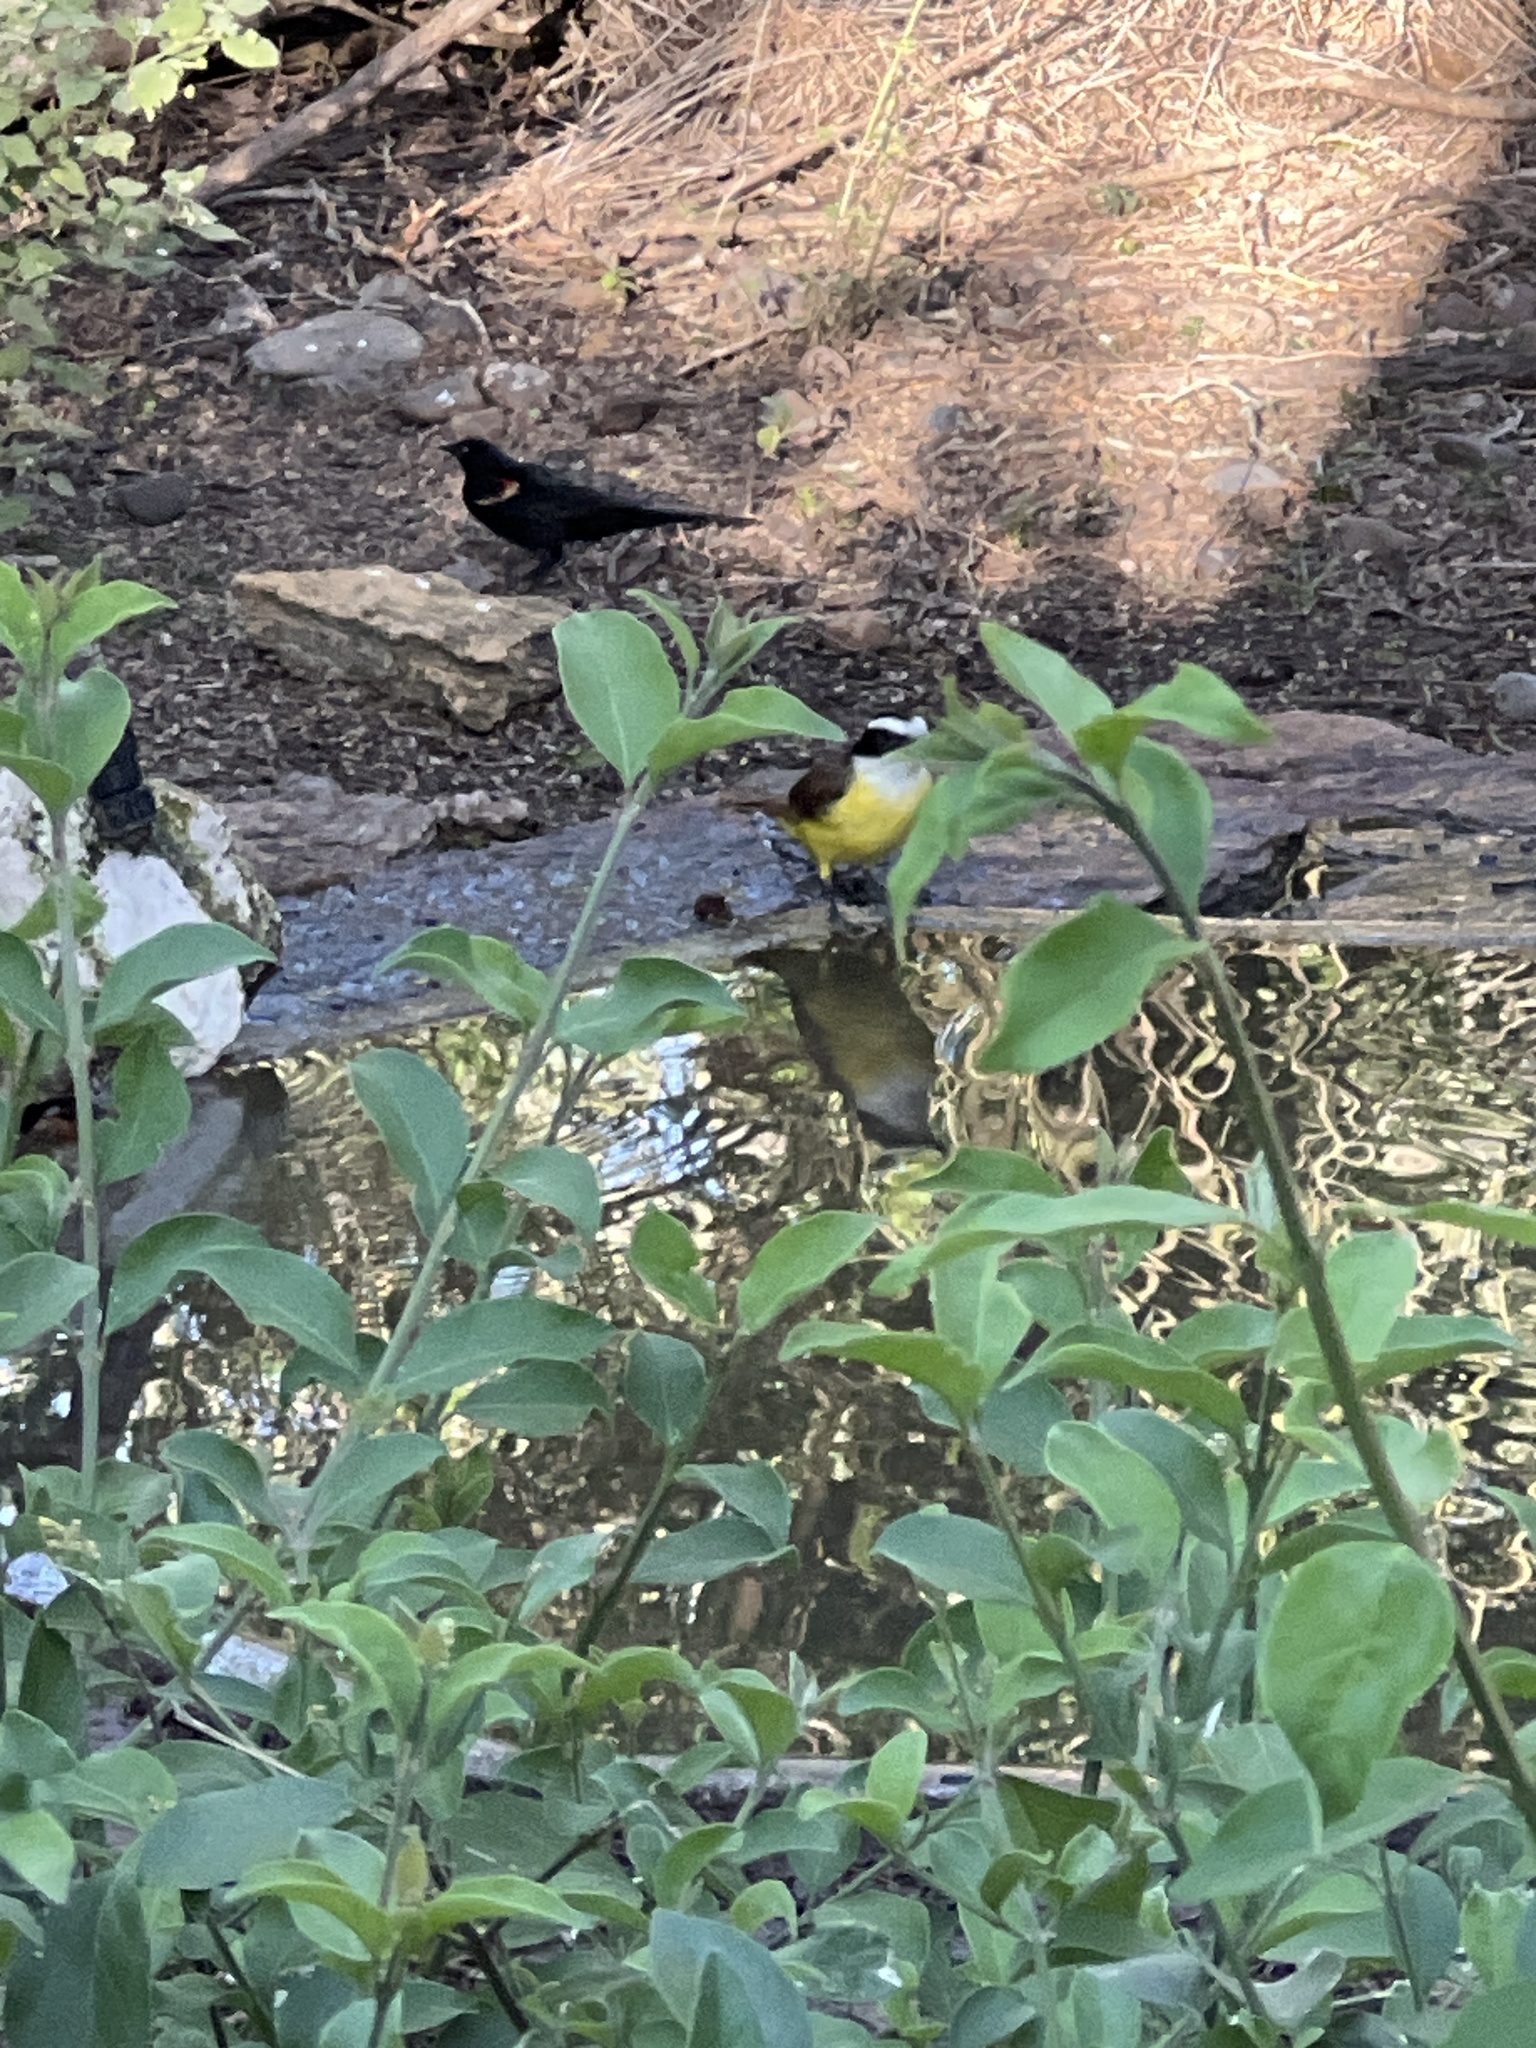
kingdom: Animalia
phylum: Chordata
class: Aves
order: Passeriformes
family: Tyrannidae
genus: Pitangus
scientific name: Pitangus sulphuratus
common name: Great kiskadee
